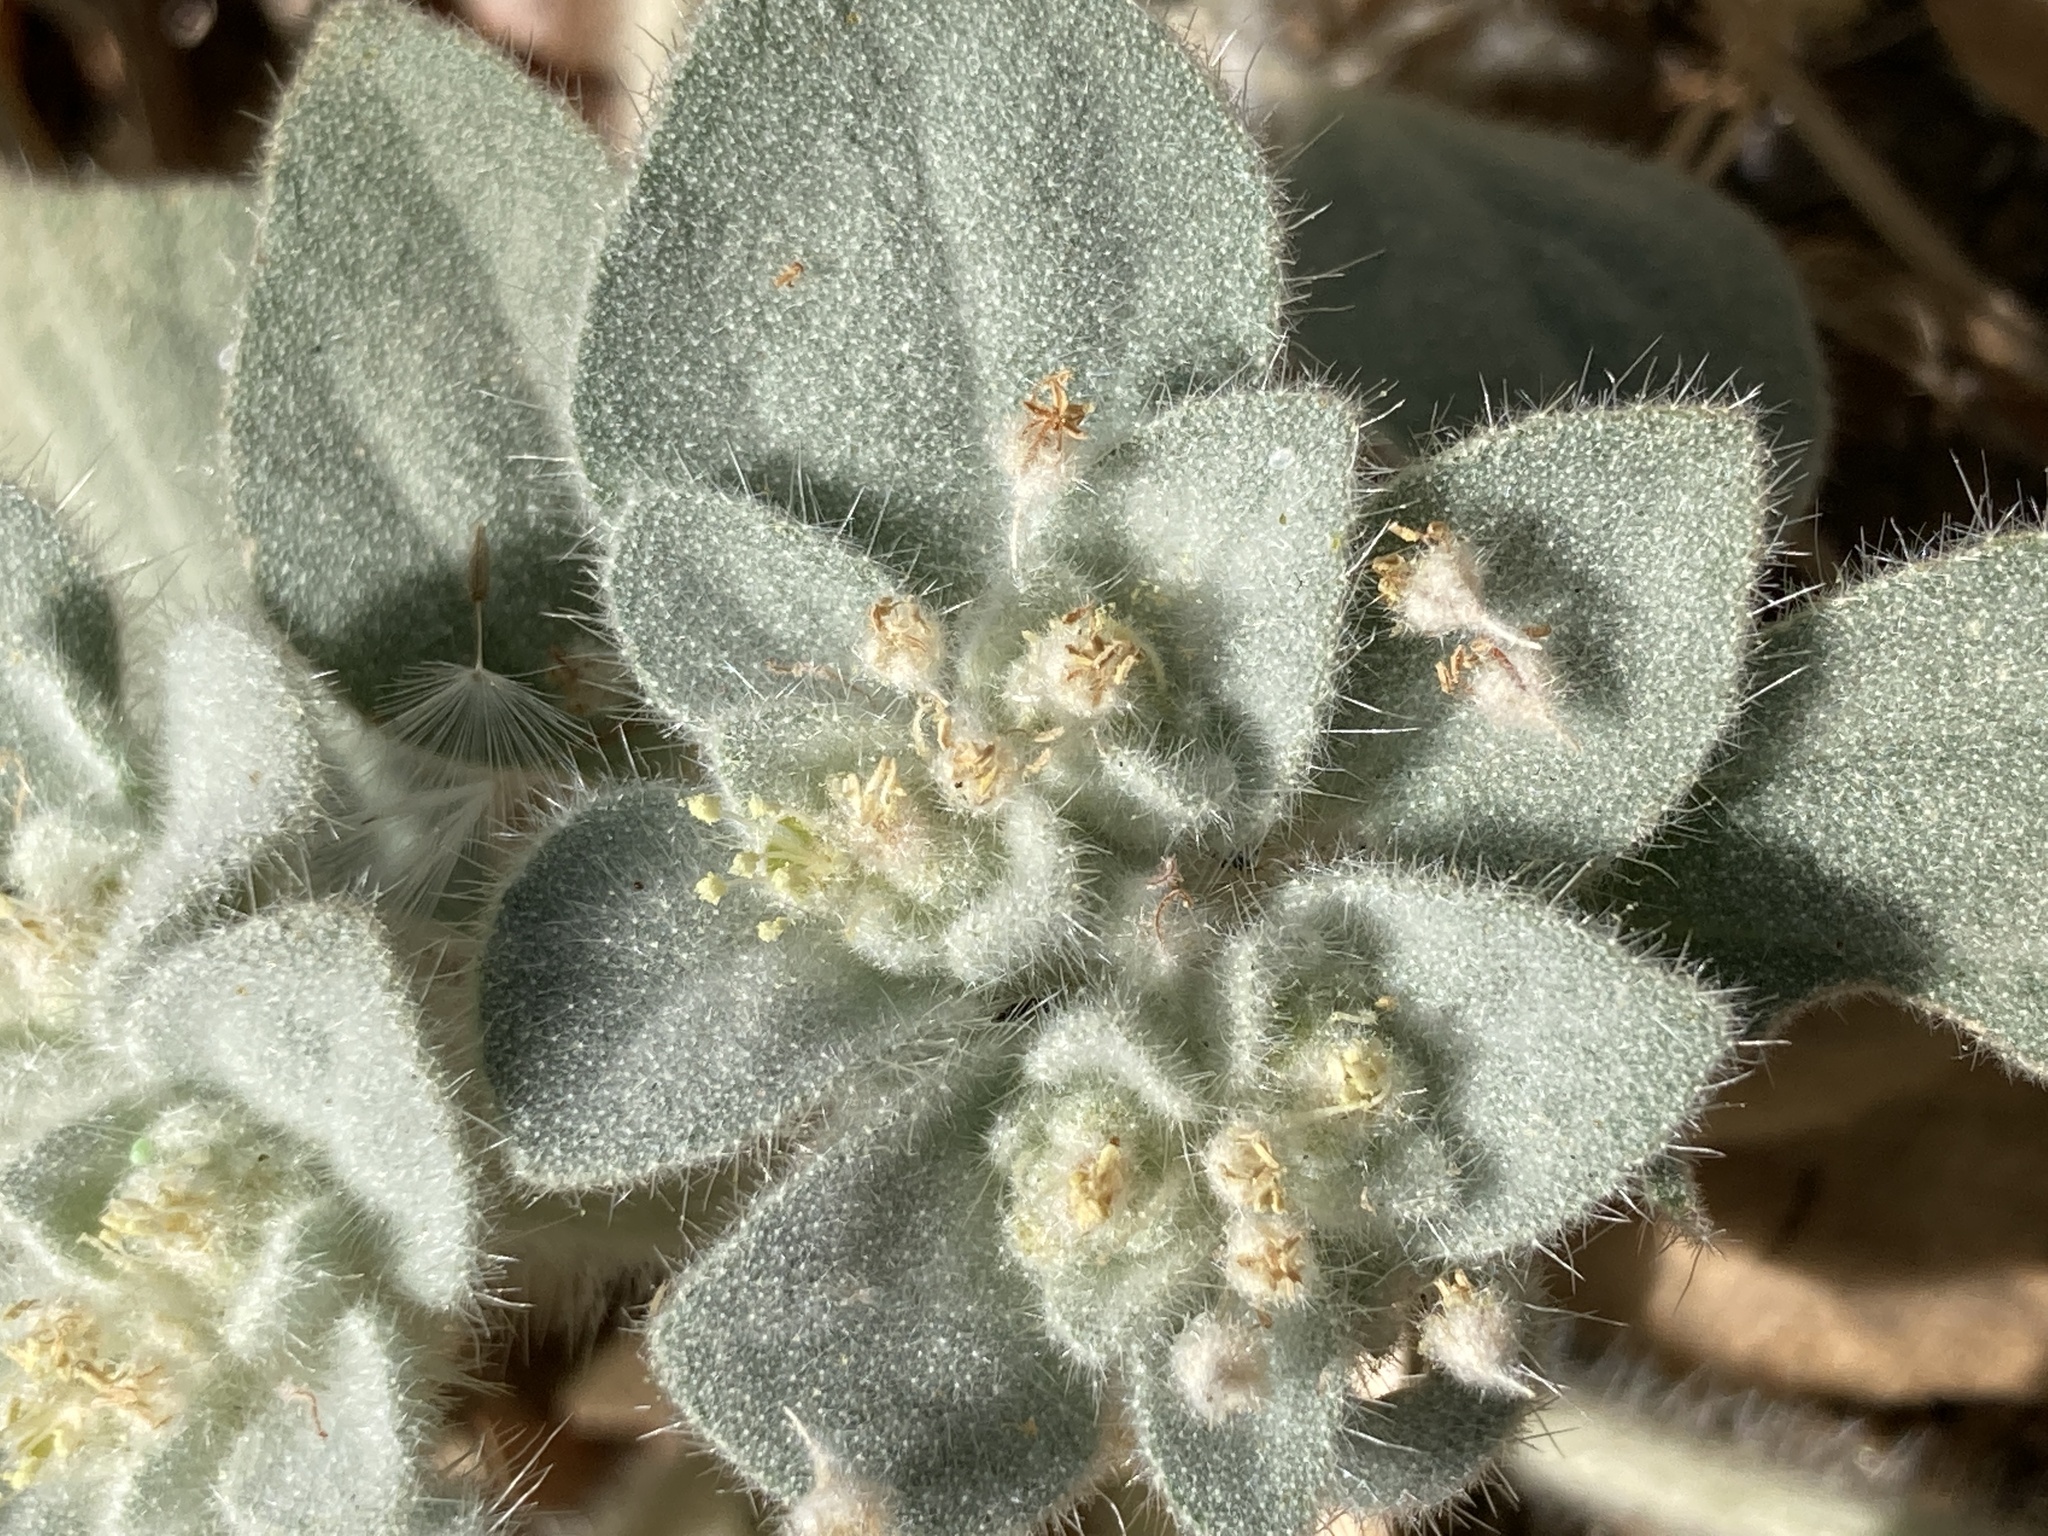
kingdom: Plantae
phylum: Tracheophyta
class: Magnoliopsida
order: Malpighiales
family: Euphorbiaceae
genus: Croton
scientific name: Croton setiger
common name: Dove weed
